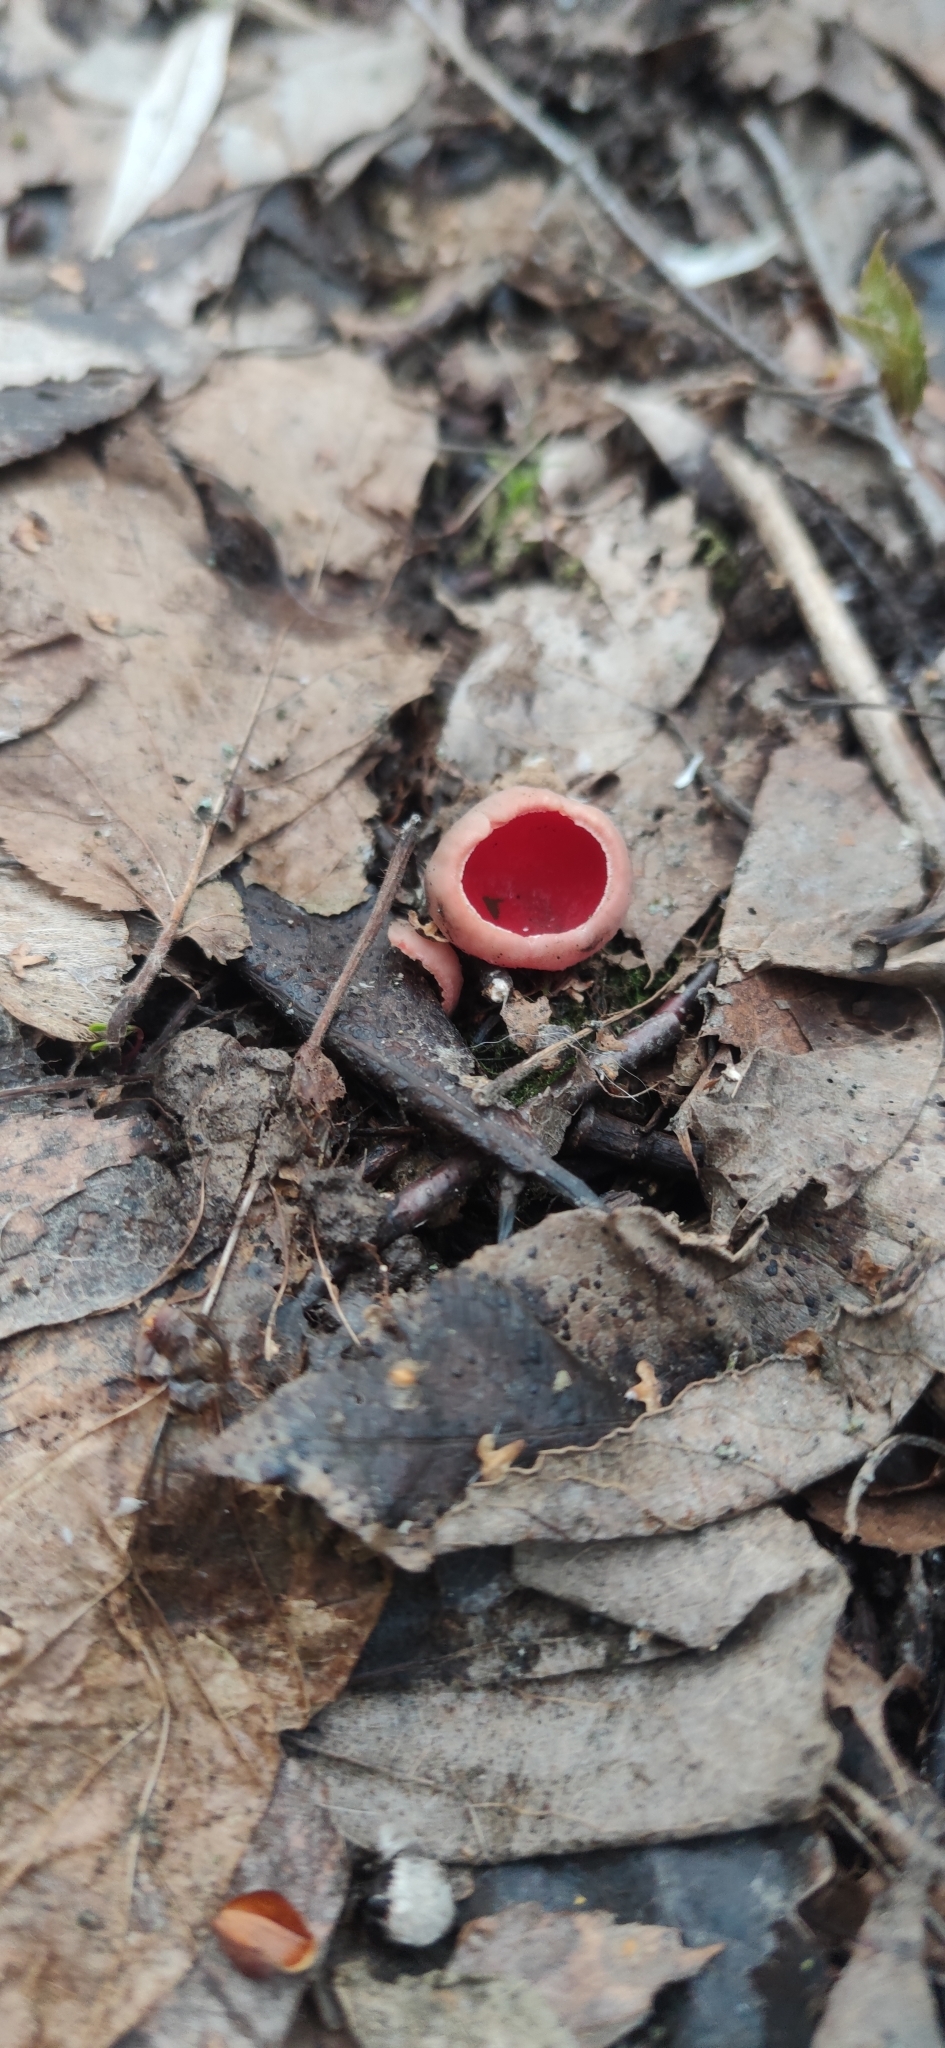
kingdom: Fungi
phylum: Ascomycota
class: Pezizomycetes
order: Pezizales
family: Sarcoscyphaceae
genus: Sarcoscypha
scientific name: Sarcoscypha austriaca
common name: Scarlet elfcup
